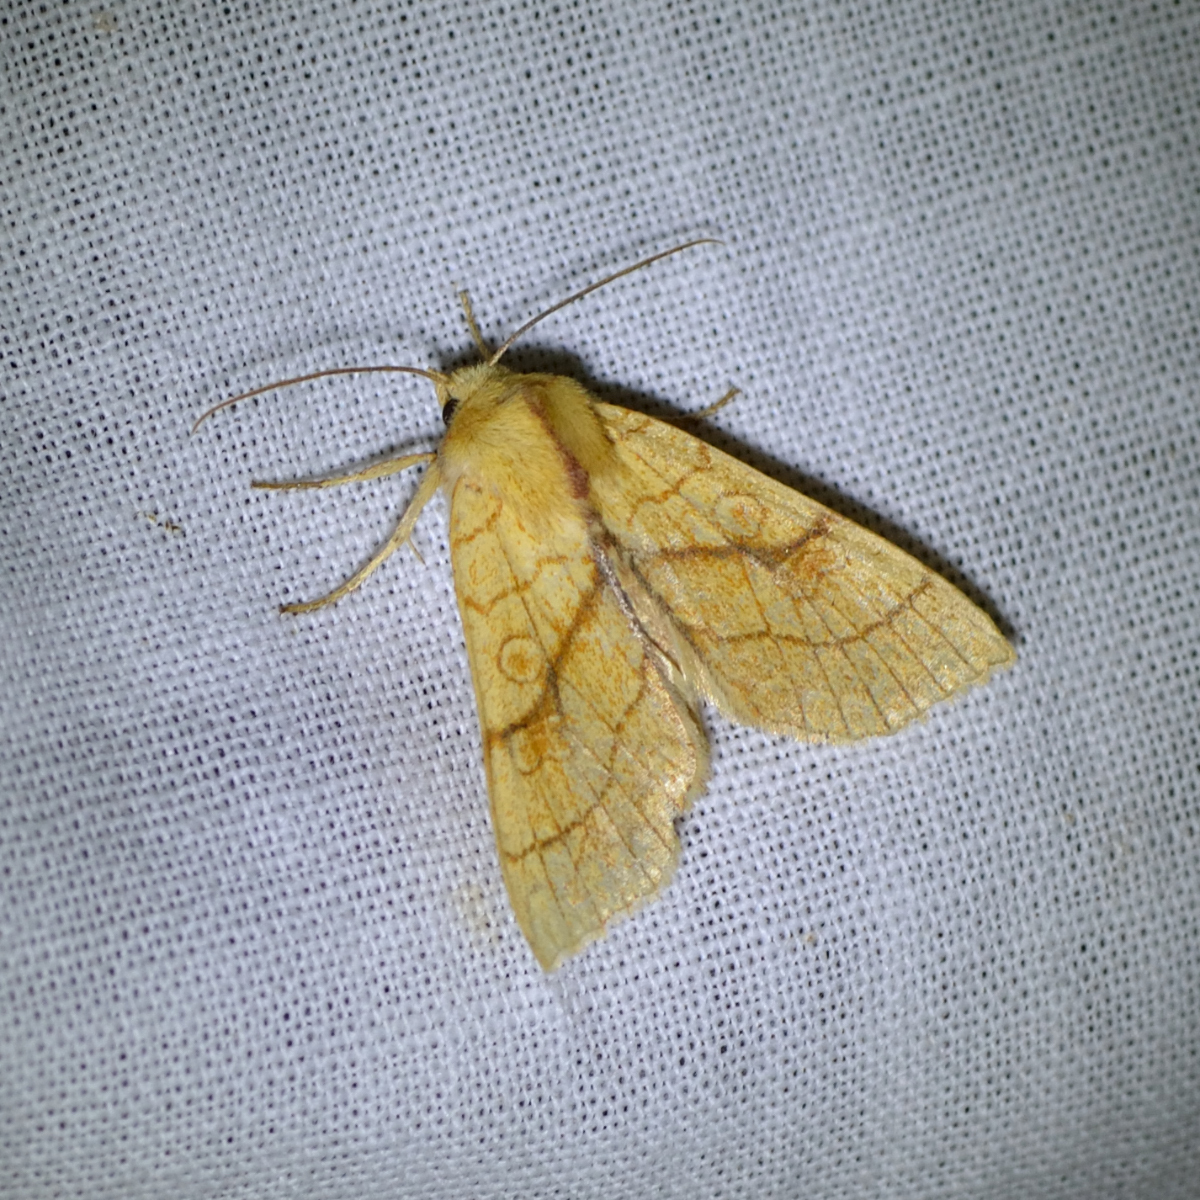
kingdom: Animalia
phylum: Arthropoda
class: Insecta
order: Lepidoptera
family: Noctuidae
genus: Tiliacea
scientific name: Tiliacea citrago
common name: Orange sallow
